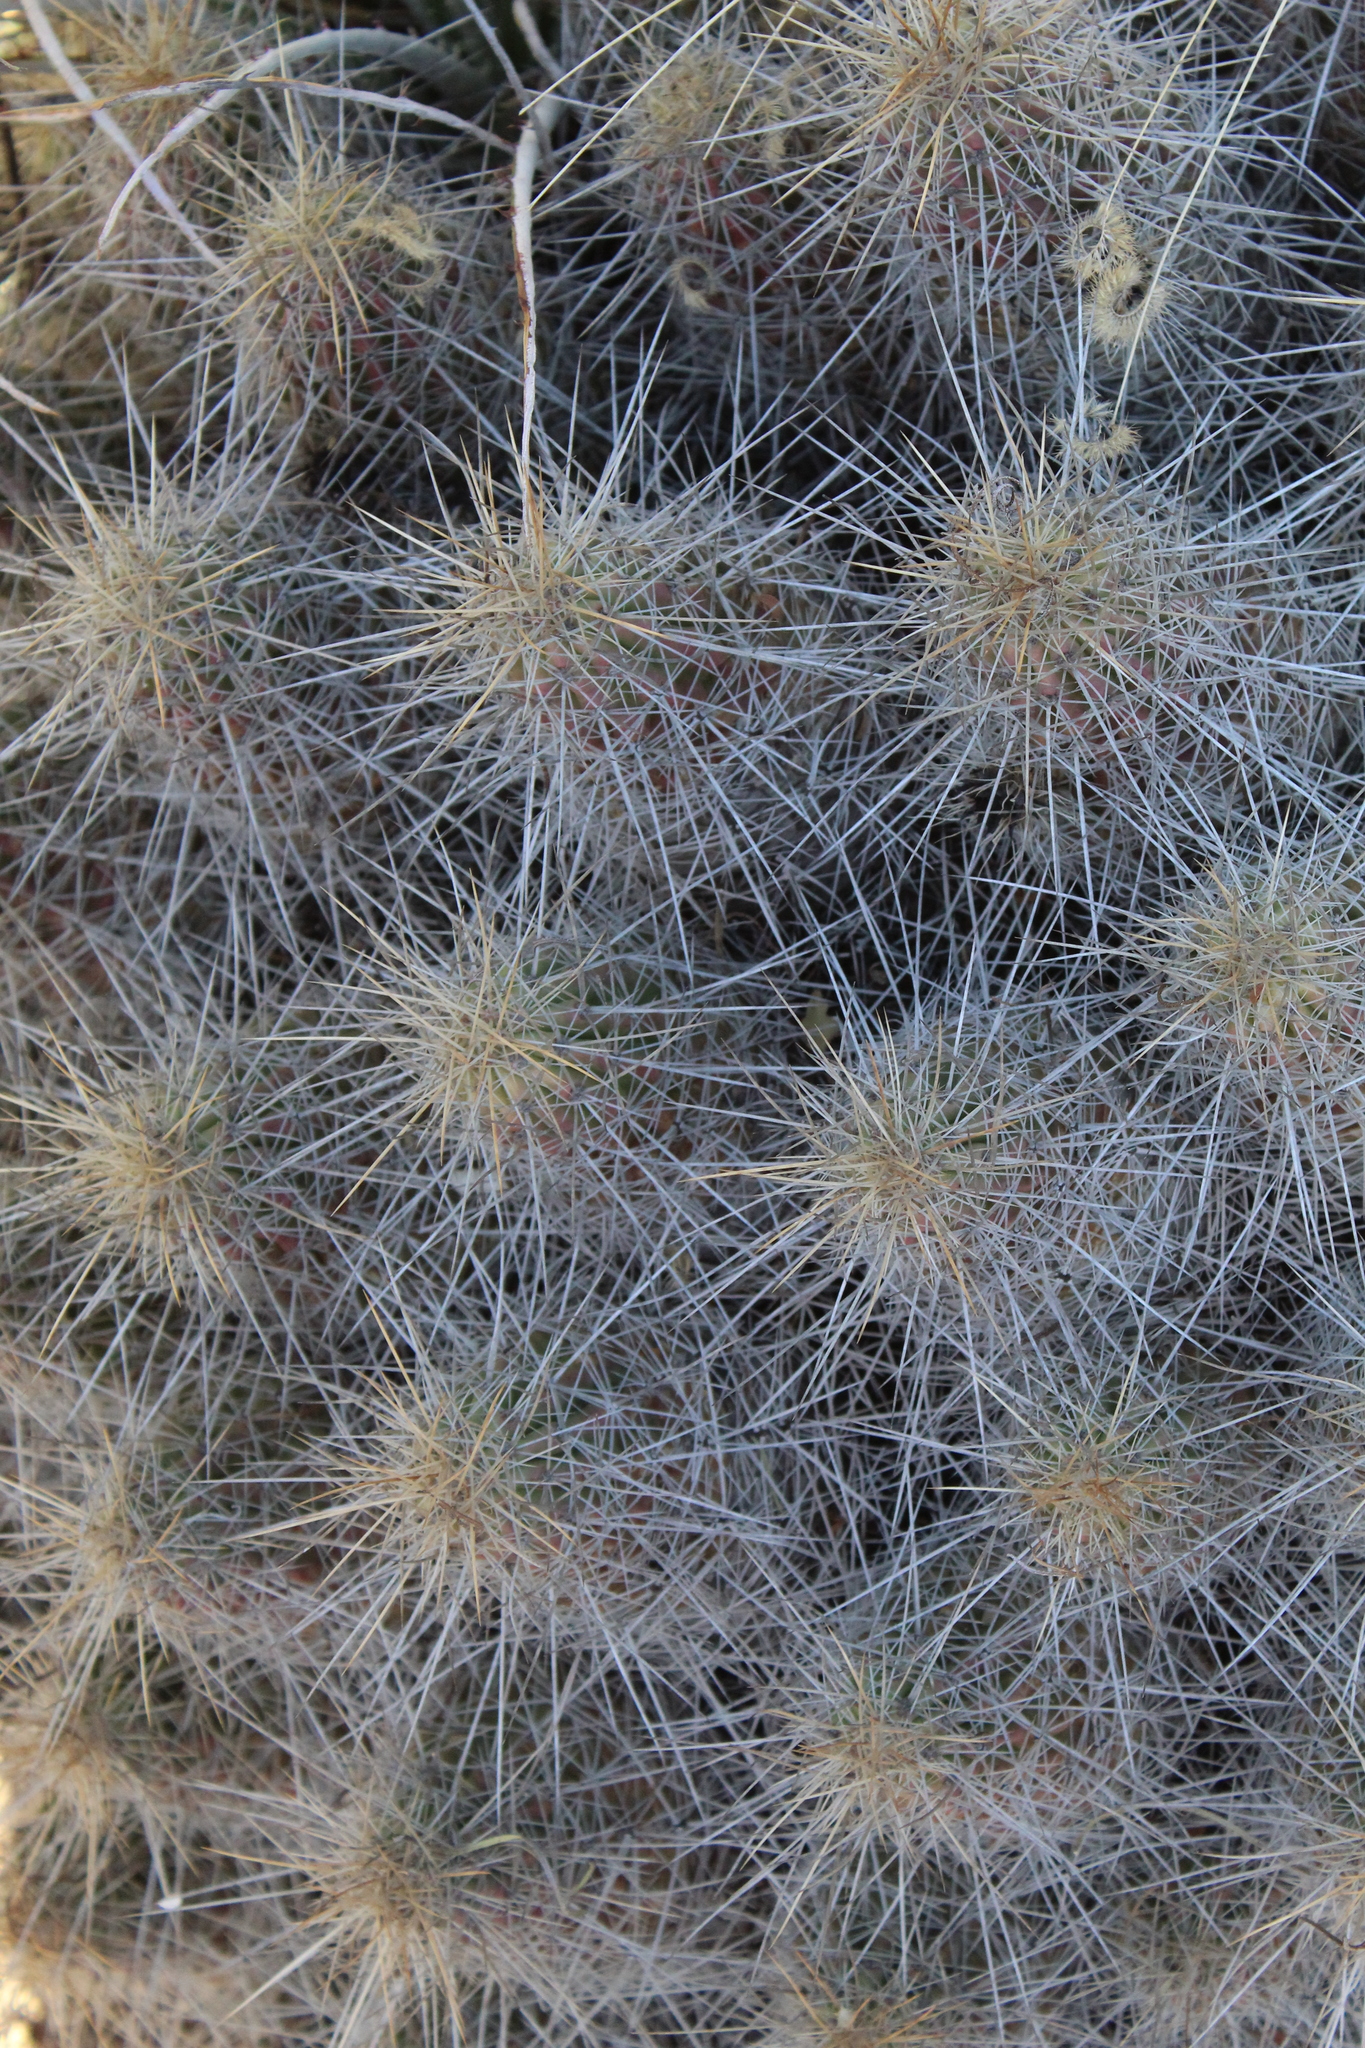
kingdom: Plantae
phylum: Tracheophyta
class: Magnoliopsida
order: Caryophyllales
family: Cactaceae
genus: Echinocereus
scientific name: Echinocereus stramineus
